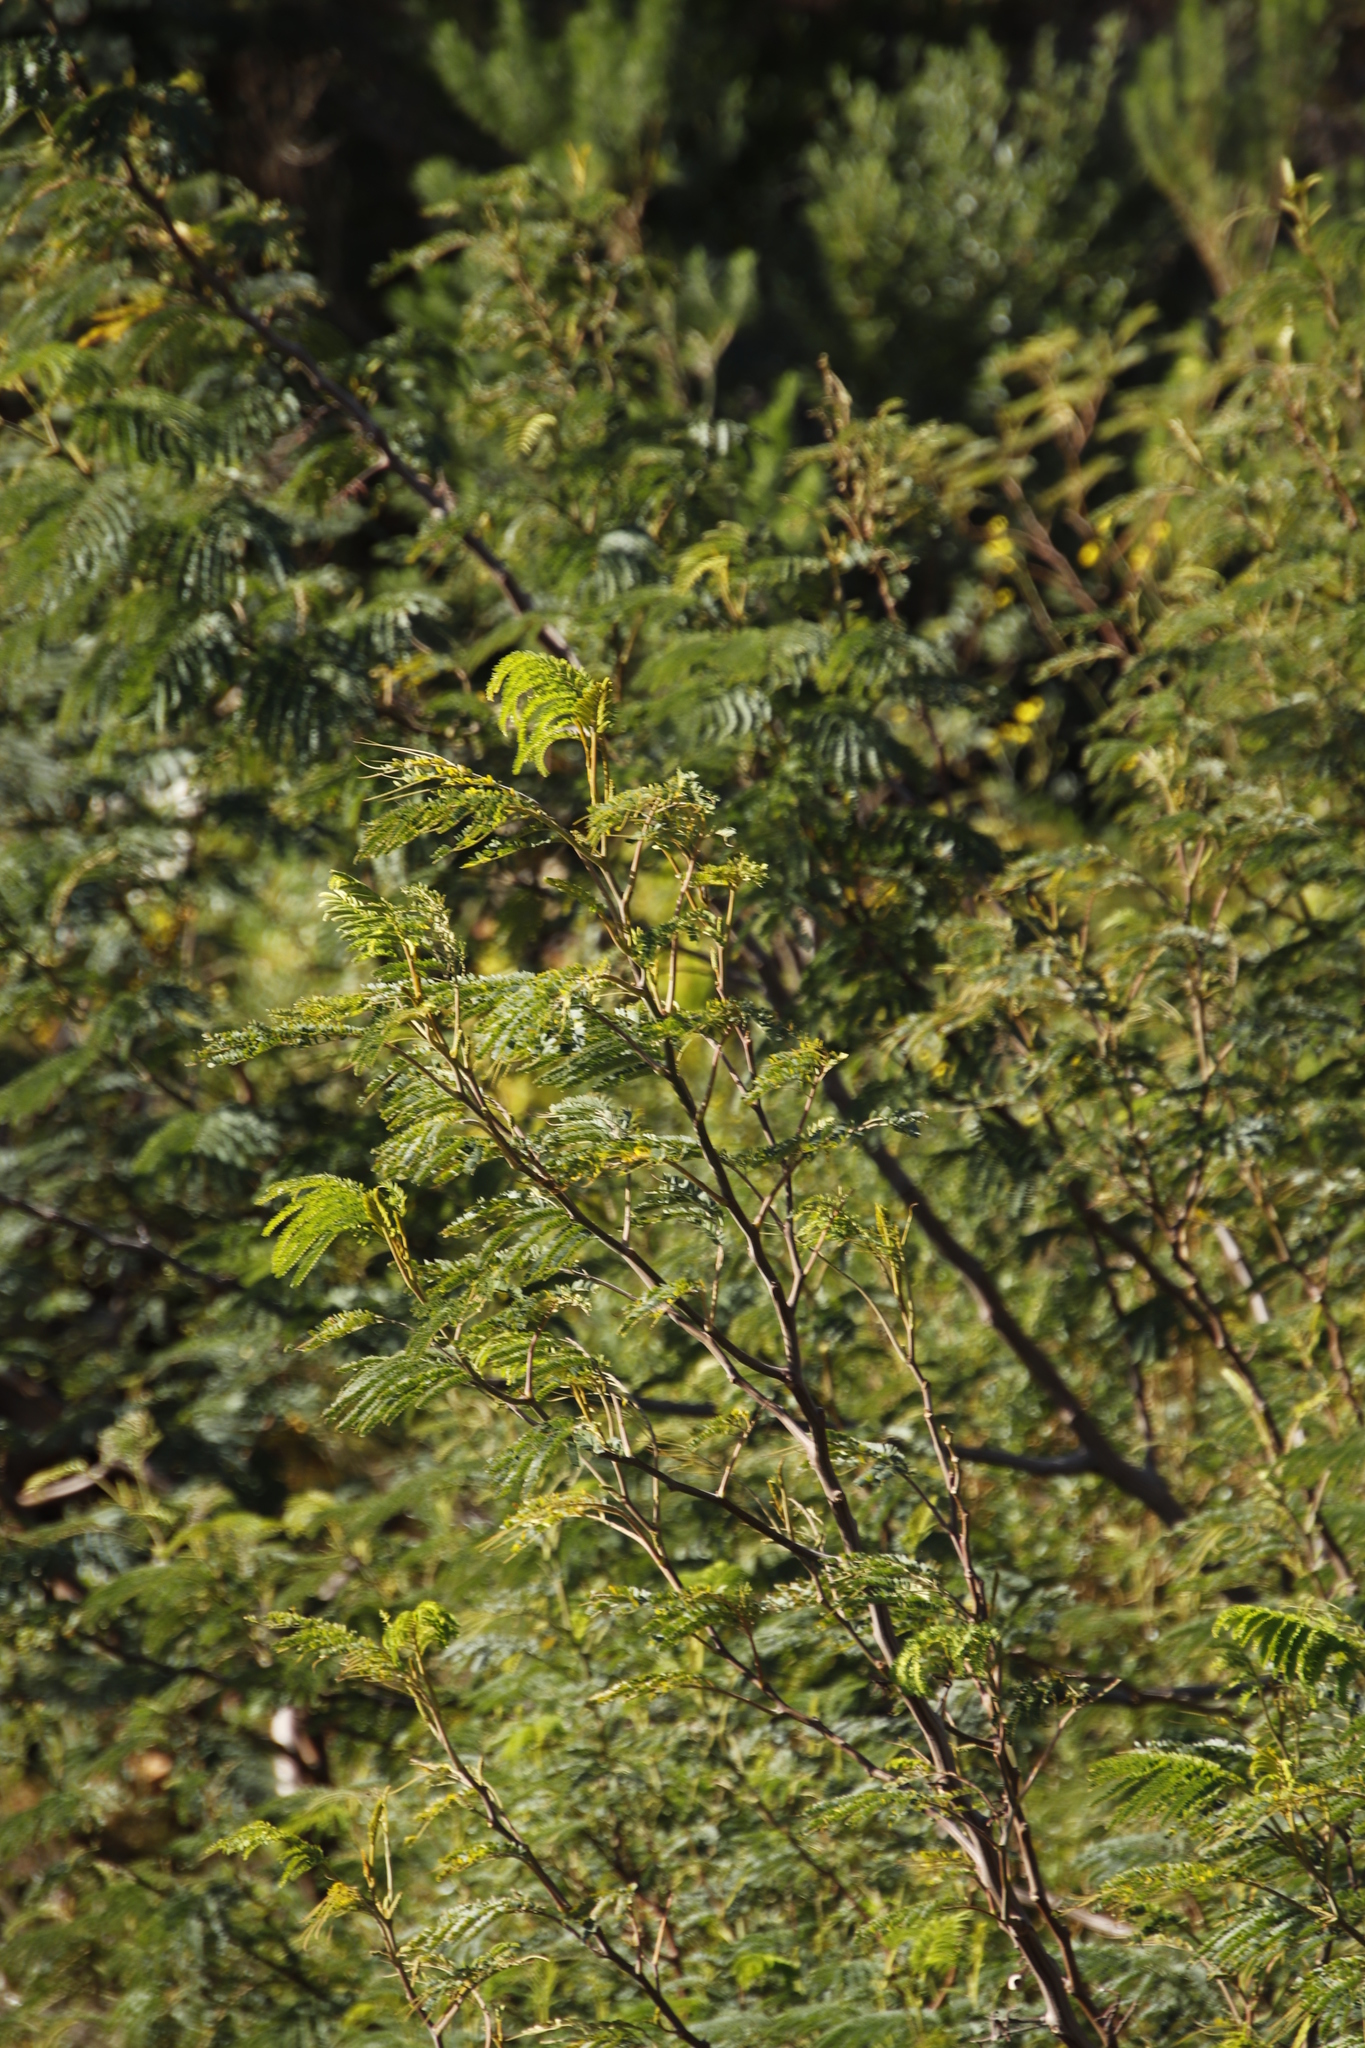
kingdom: Plantae
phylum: Tracheophyta
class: Magnoliopsida
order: Fabales
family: Fabaceae
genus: Paraserianthes
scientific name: Paraserianthes lophantha
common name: Plume albizia
